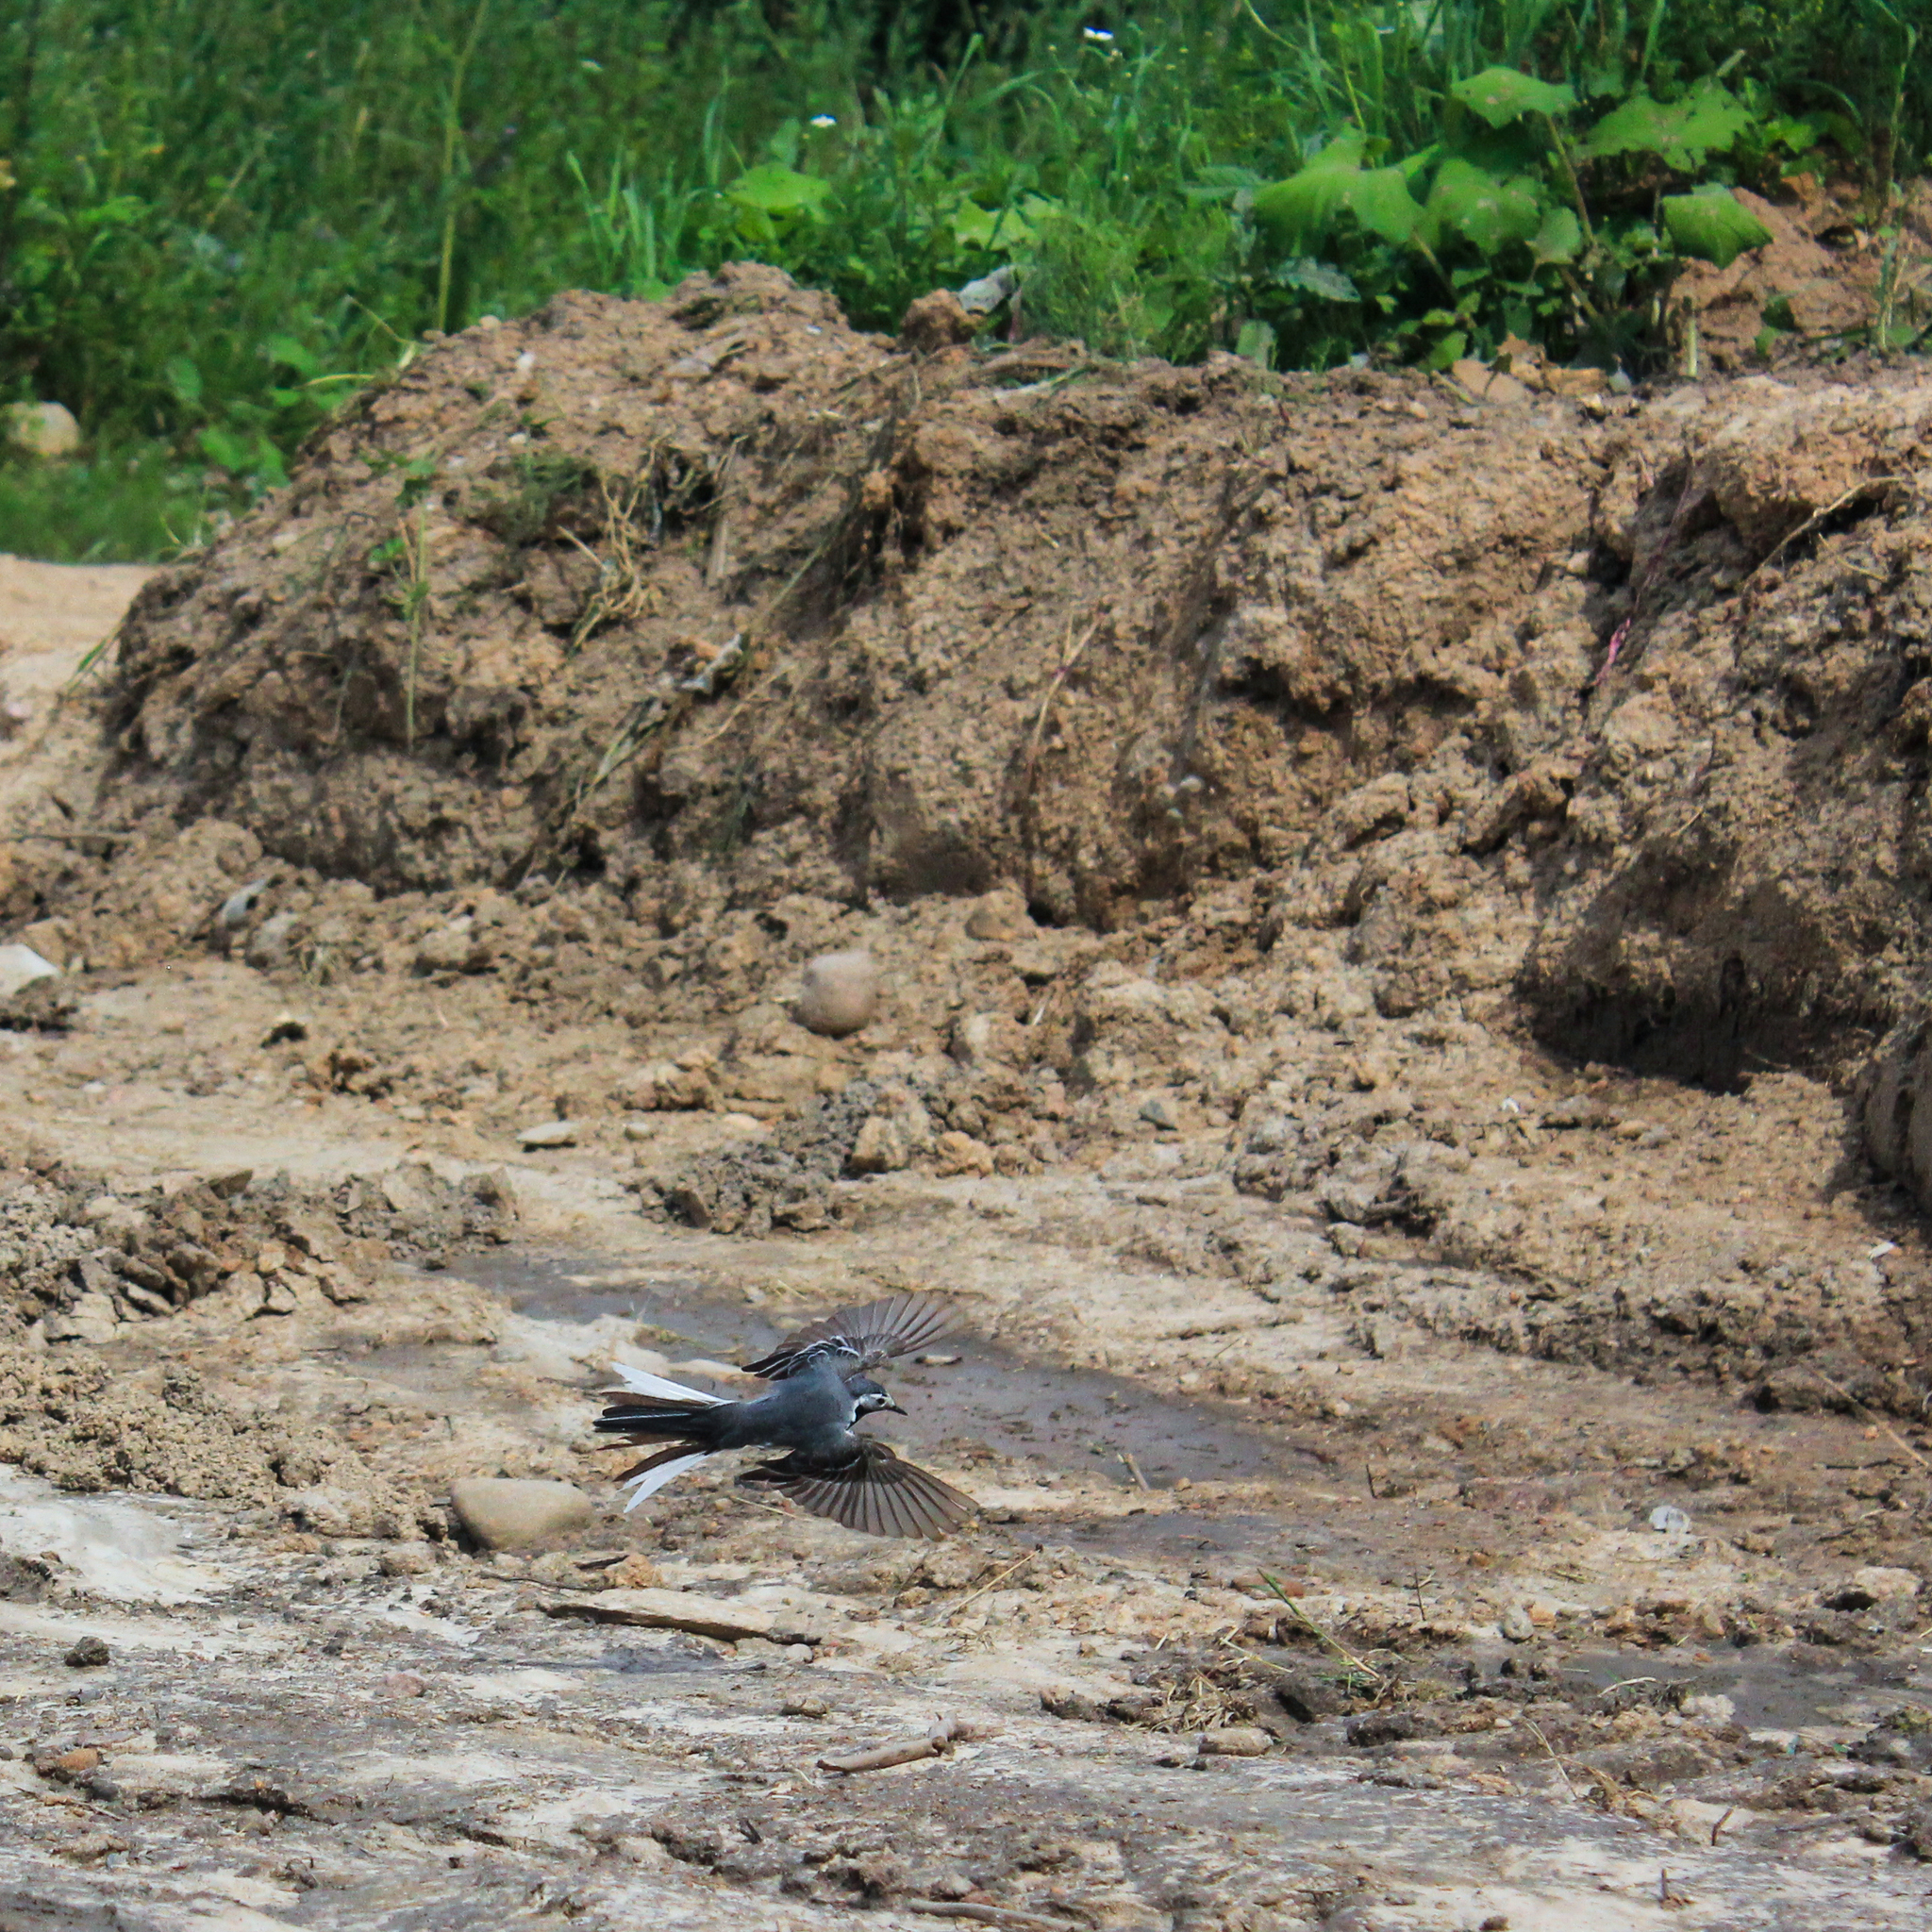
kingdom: Animalia
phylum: Chordata
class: Aves
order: Passeriformes
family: Motacillidae
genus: Motacilla
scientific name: Motacilla alba
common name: White wagtail
